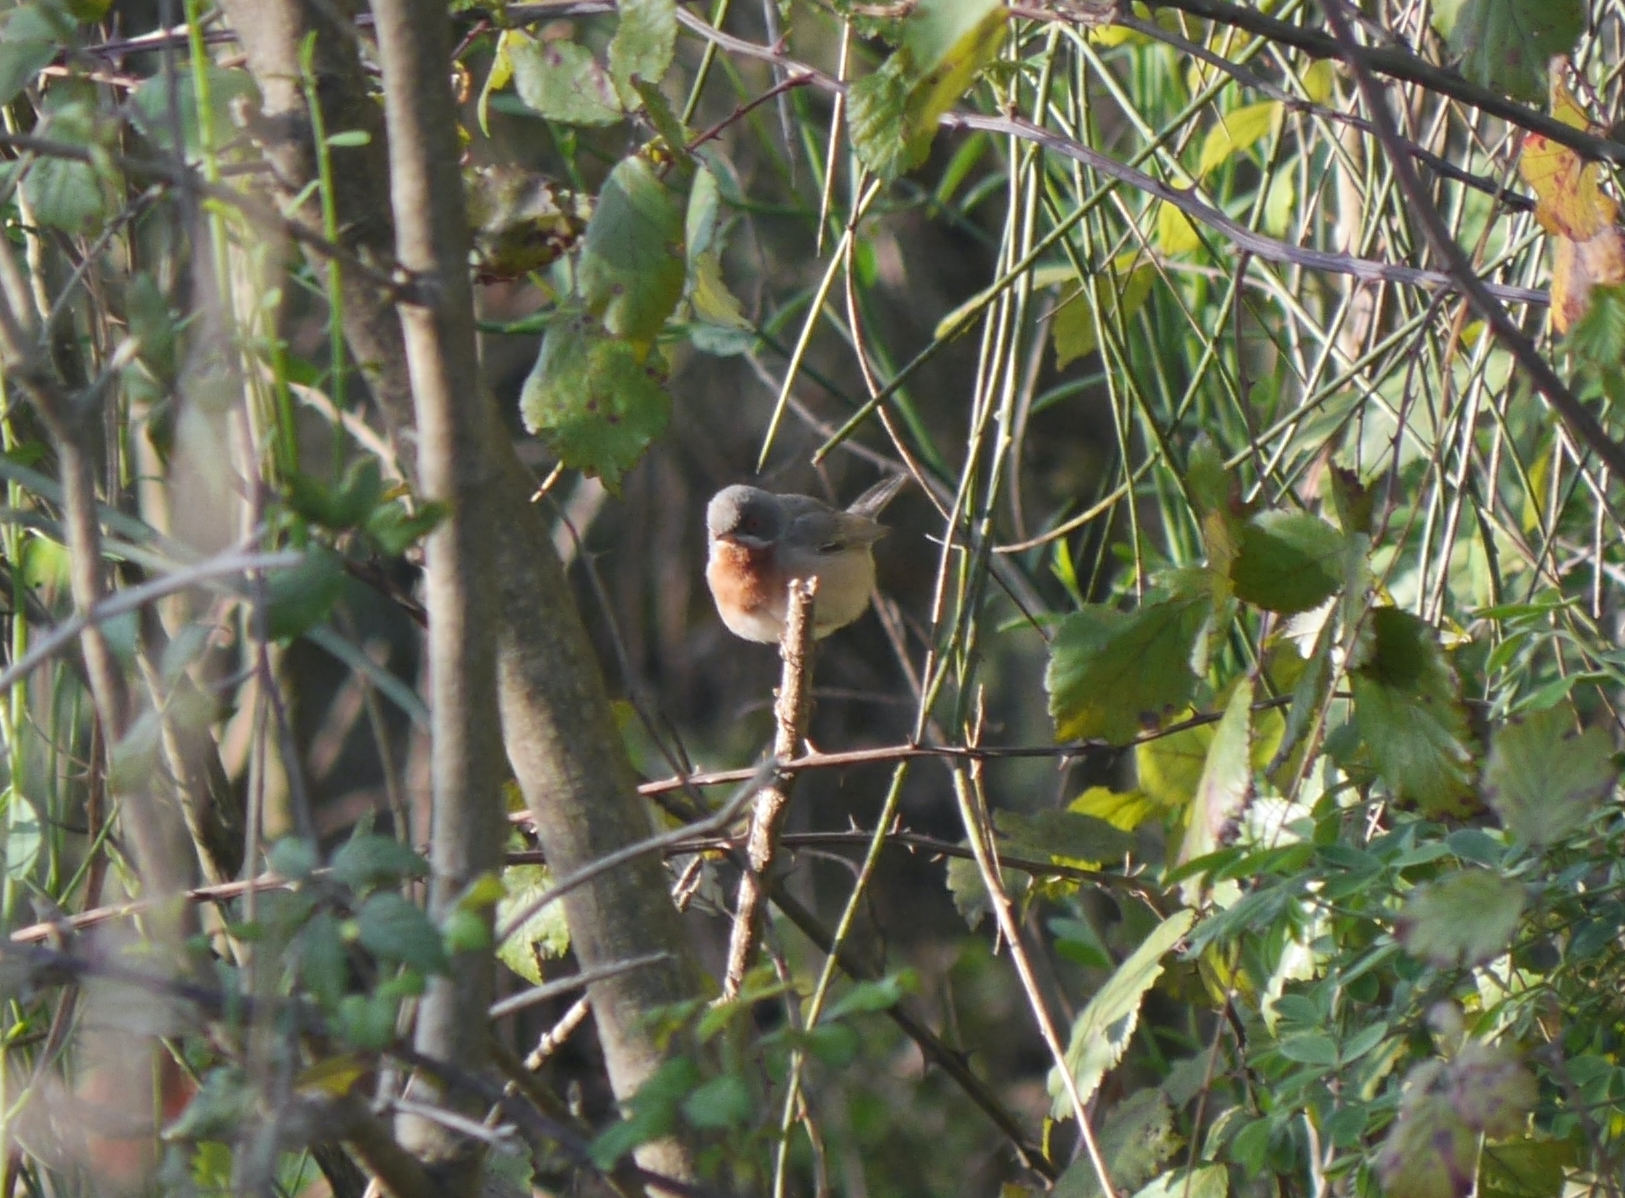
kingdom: Animalia
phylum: Chordata
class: Aves
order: Passeriformes
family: Sylviidae
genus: Curruca
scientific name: Curruca cantillans
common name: Subalpine warbler
